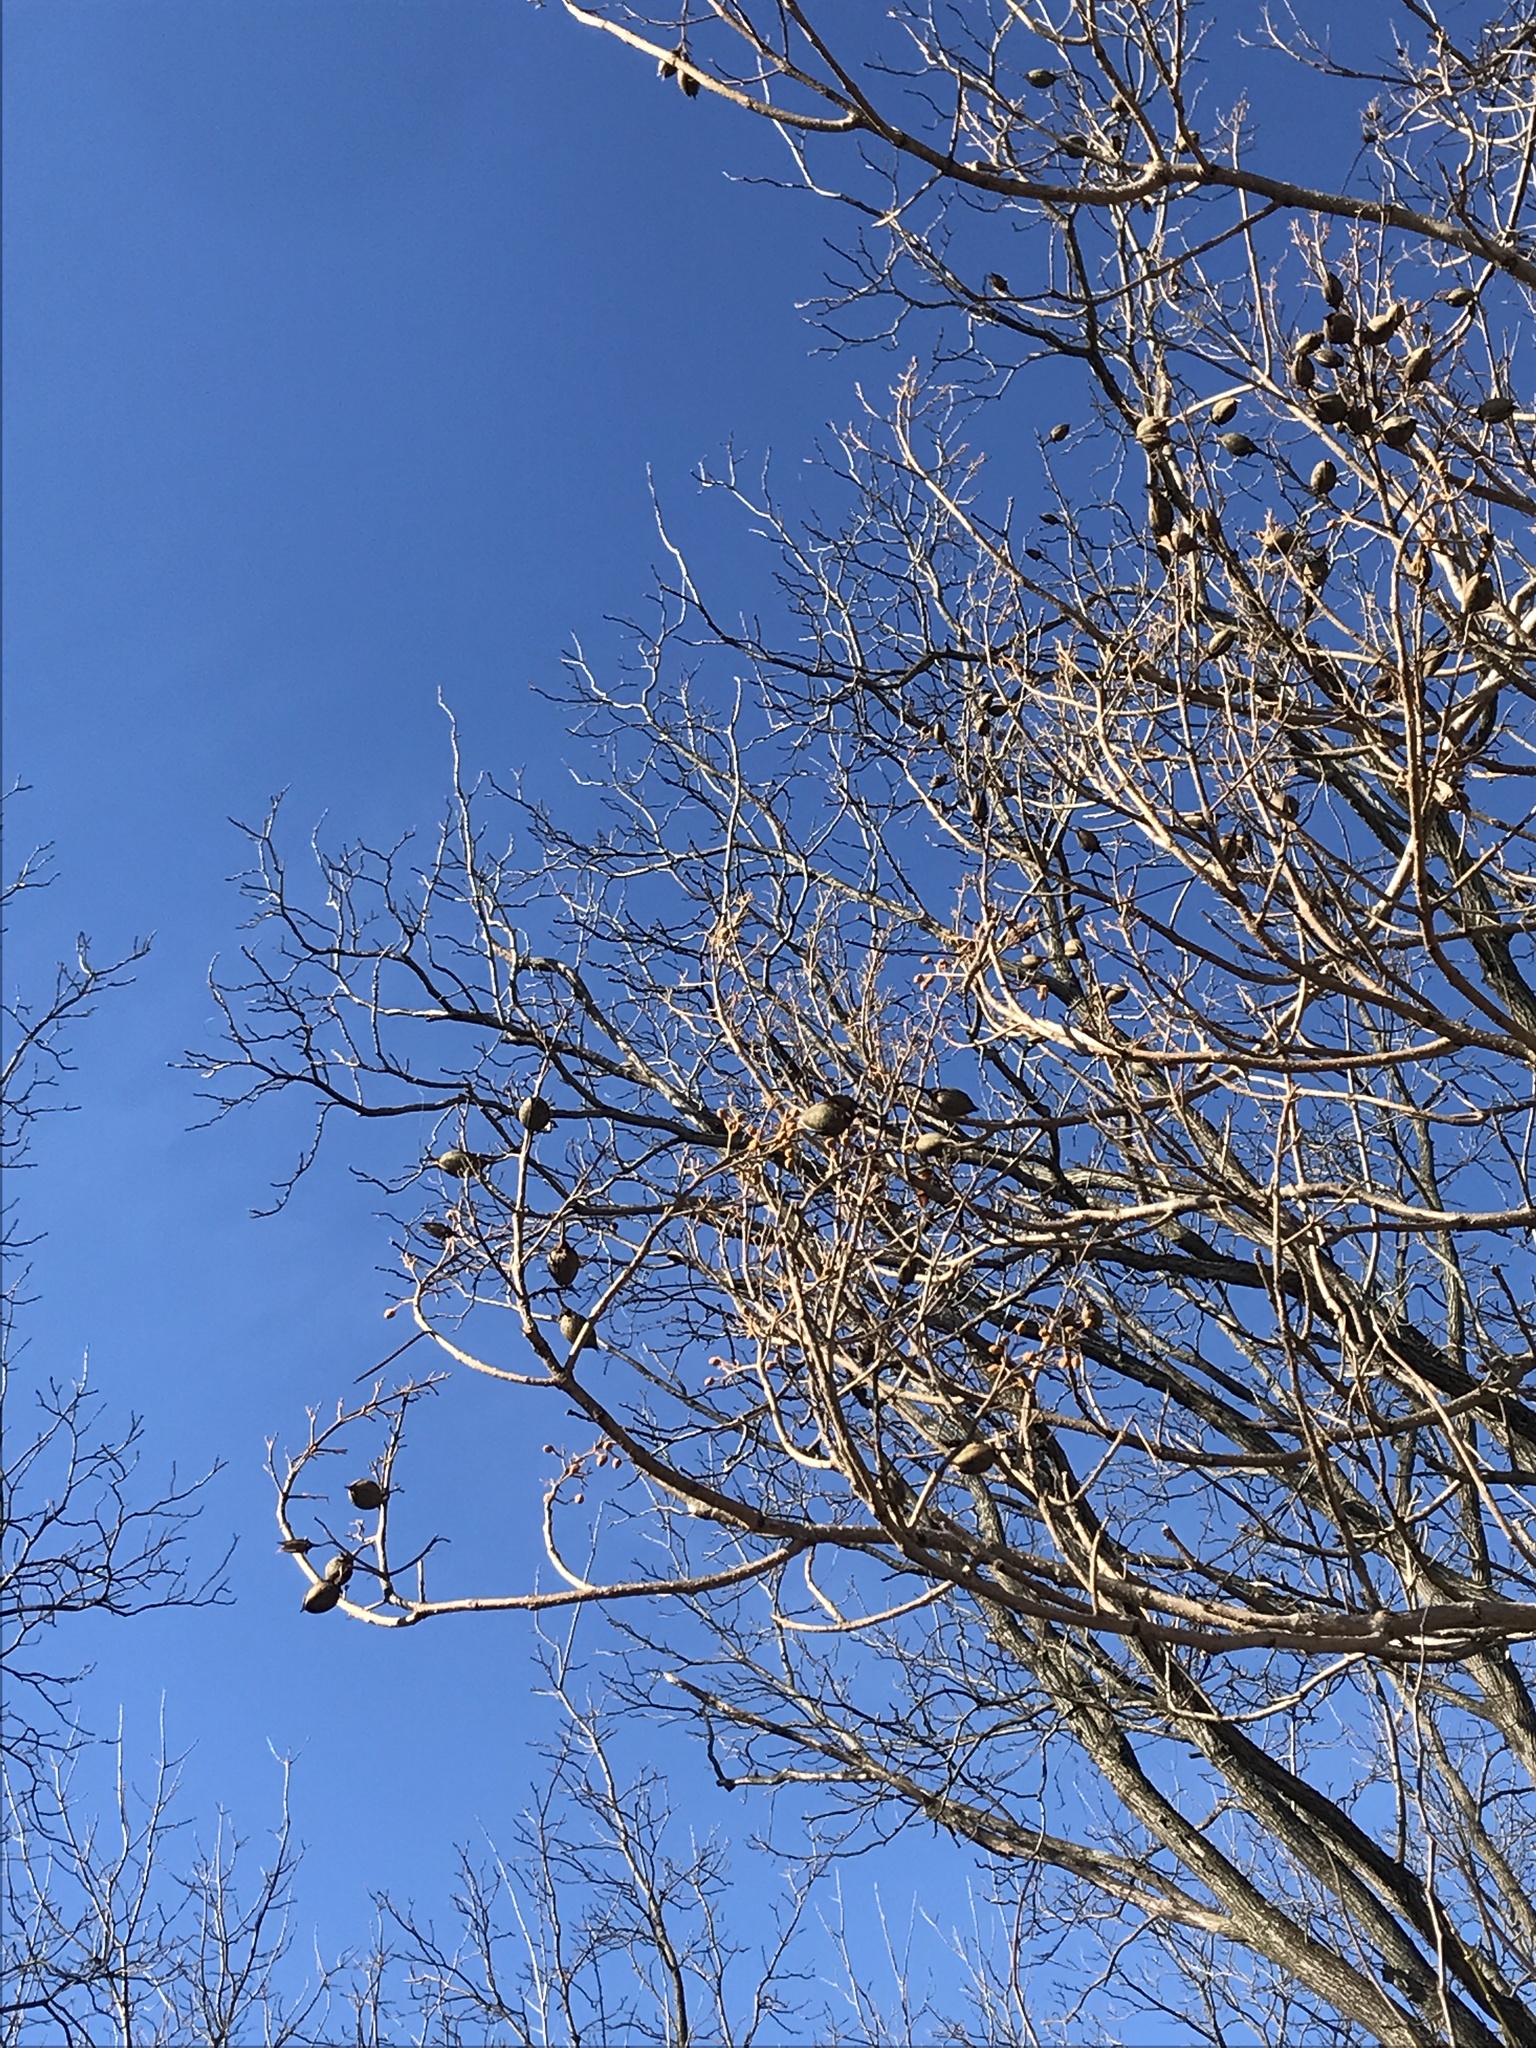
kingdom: Plantae
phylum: Tracheophyta
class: Magnoliopsida
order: Lamiales
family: Paulowniaceae
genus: Paulownia
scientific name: Paulownia tomentosa
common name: Foxglove-tree
